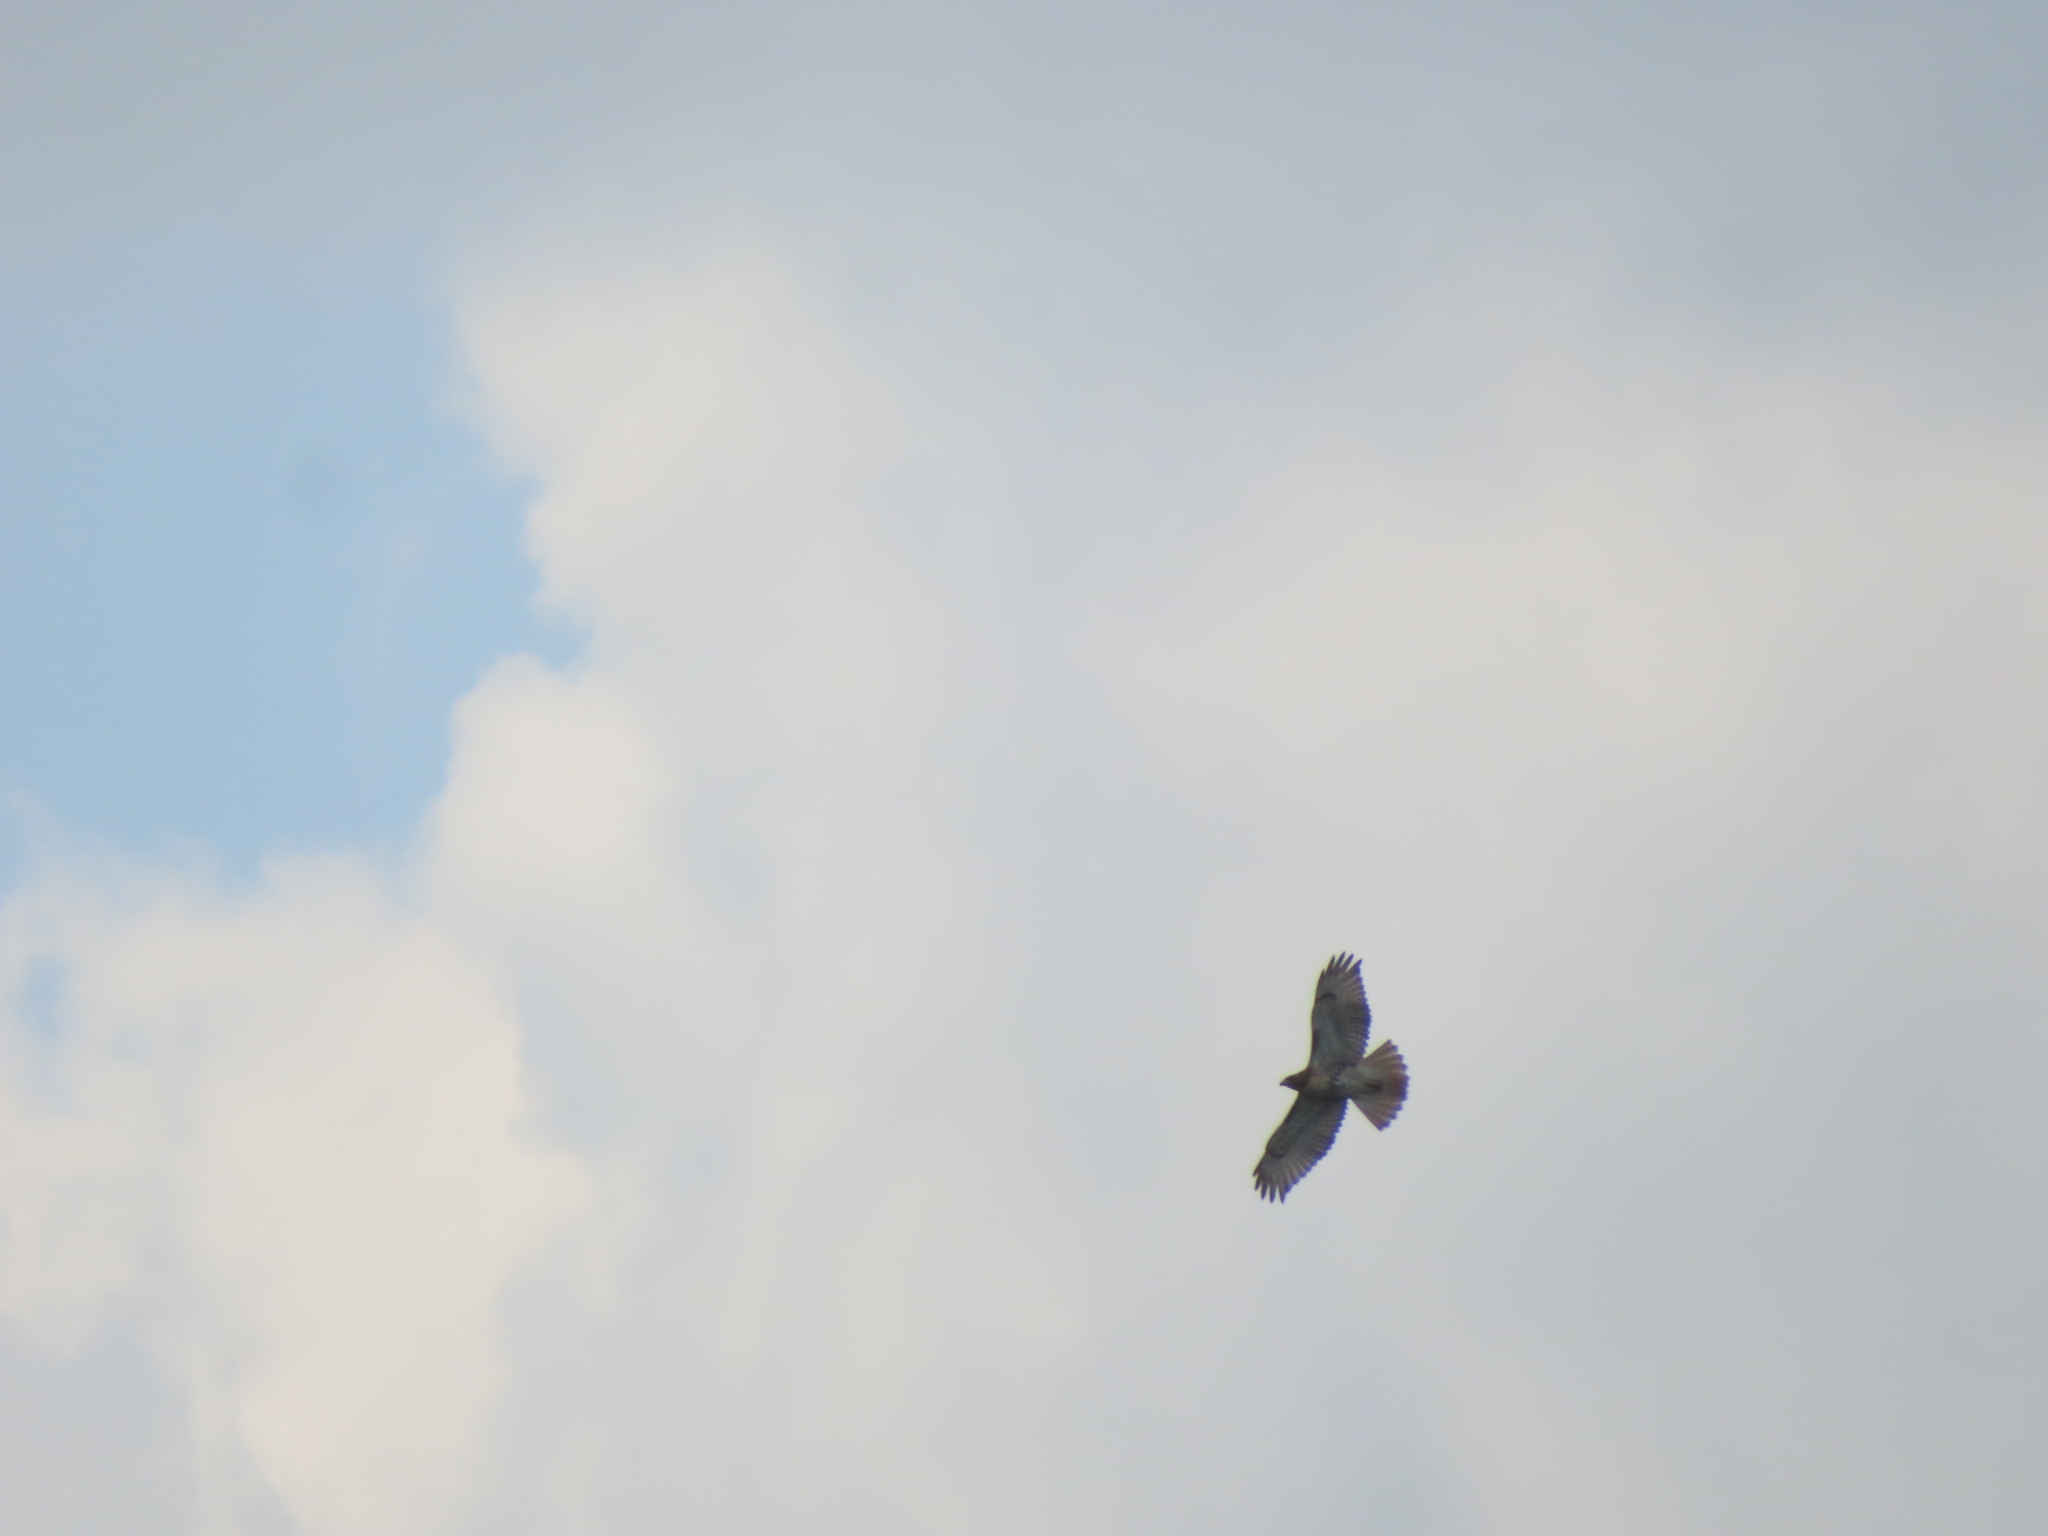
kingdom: Animalia
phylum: Chordata
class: Aves
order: Accipitriformes
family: Accipitridae
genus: Buteo
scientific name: Buteo jamaicensis
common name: Red-tailed hawk
